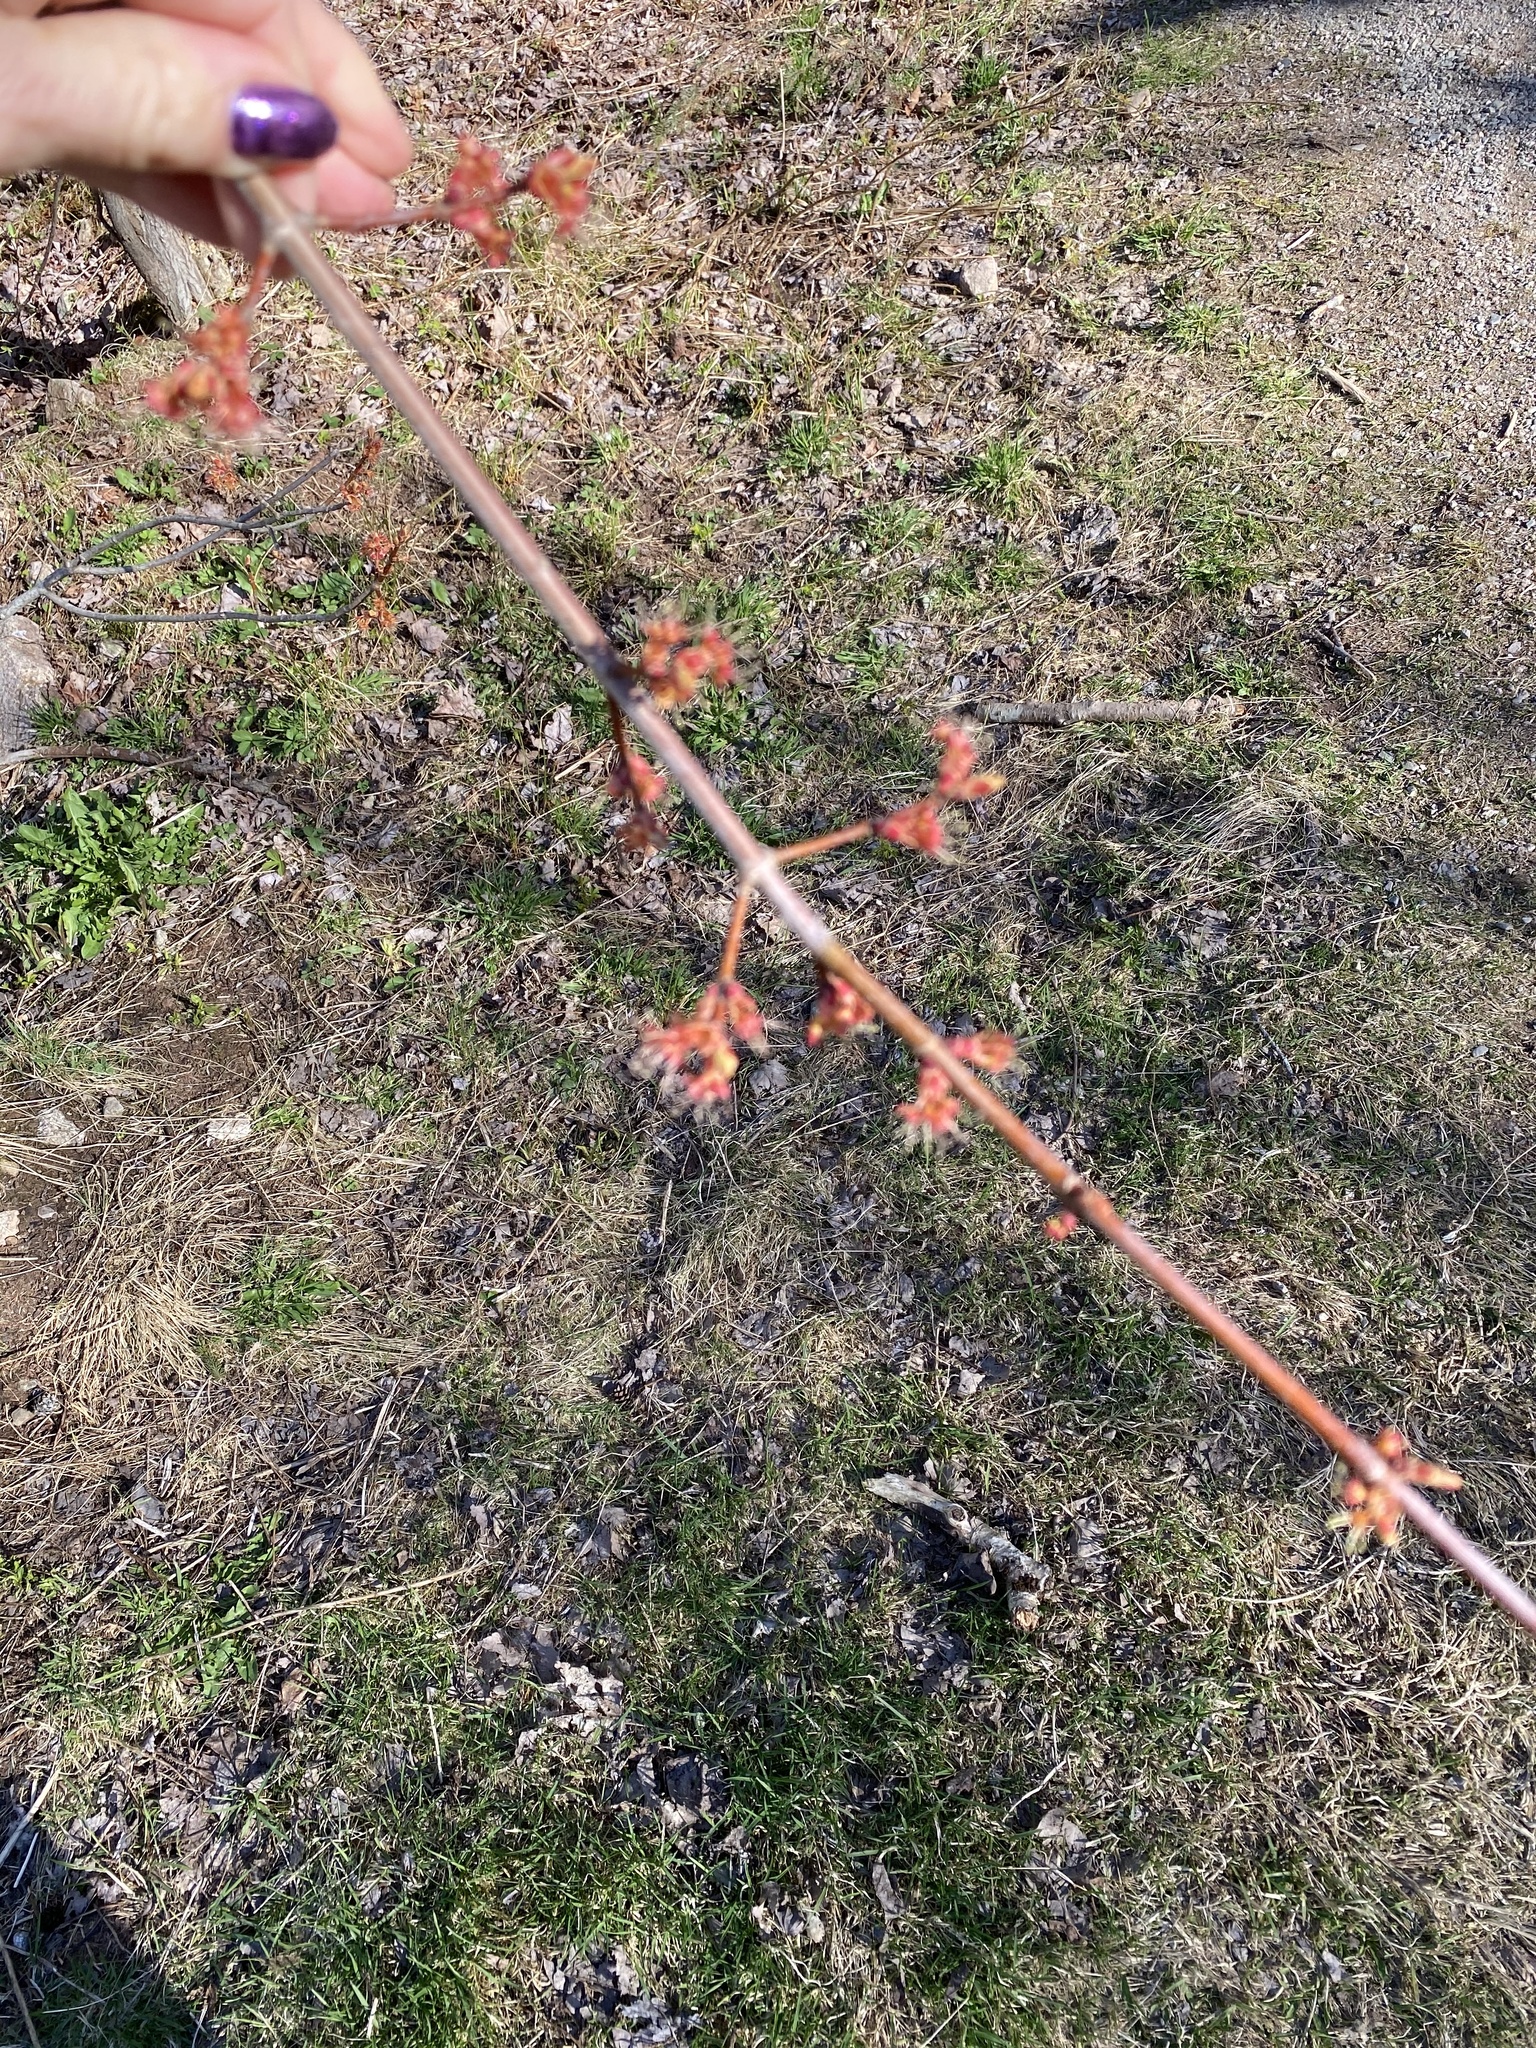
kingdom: Plantae
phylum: Tracheophyta
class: Magnoliopsida
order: Sapindales
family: Sapindaceae
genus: Acer
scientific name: Acer rubrum
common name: Red maple
